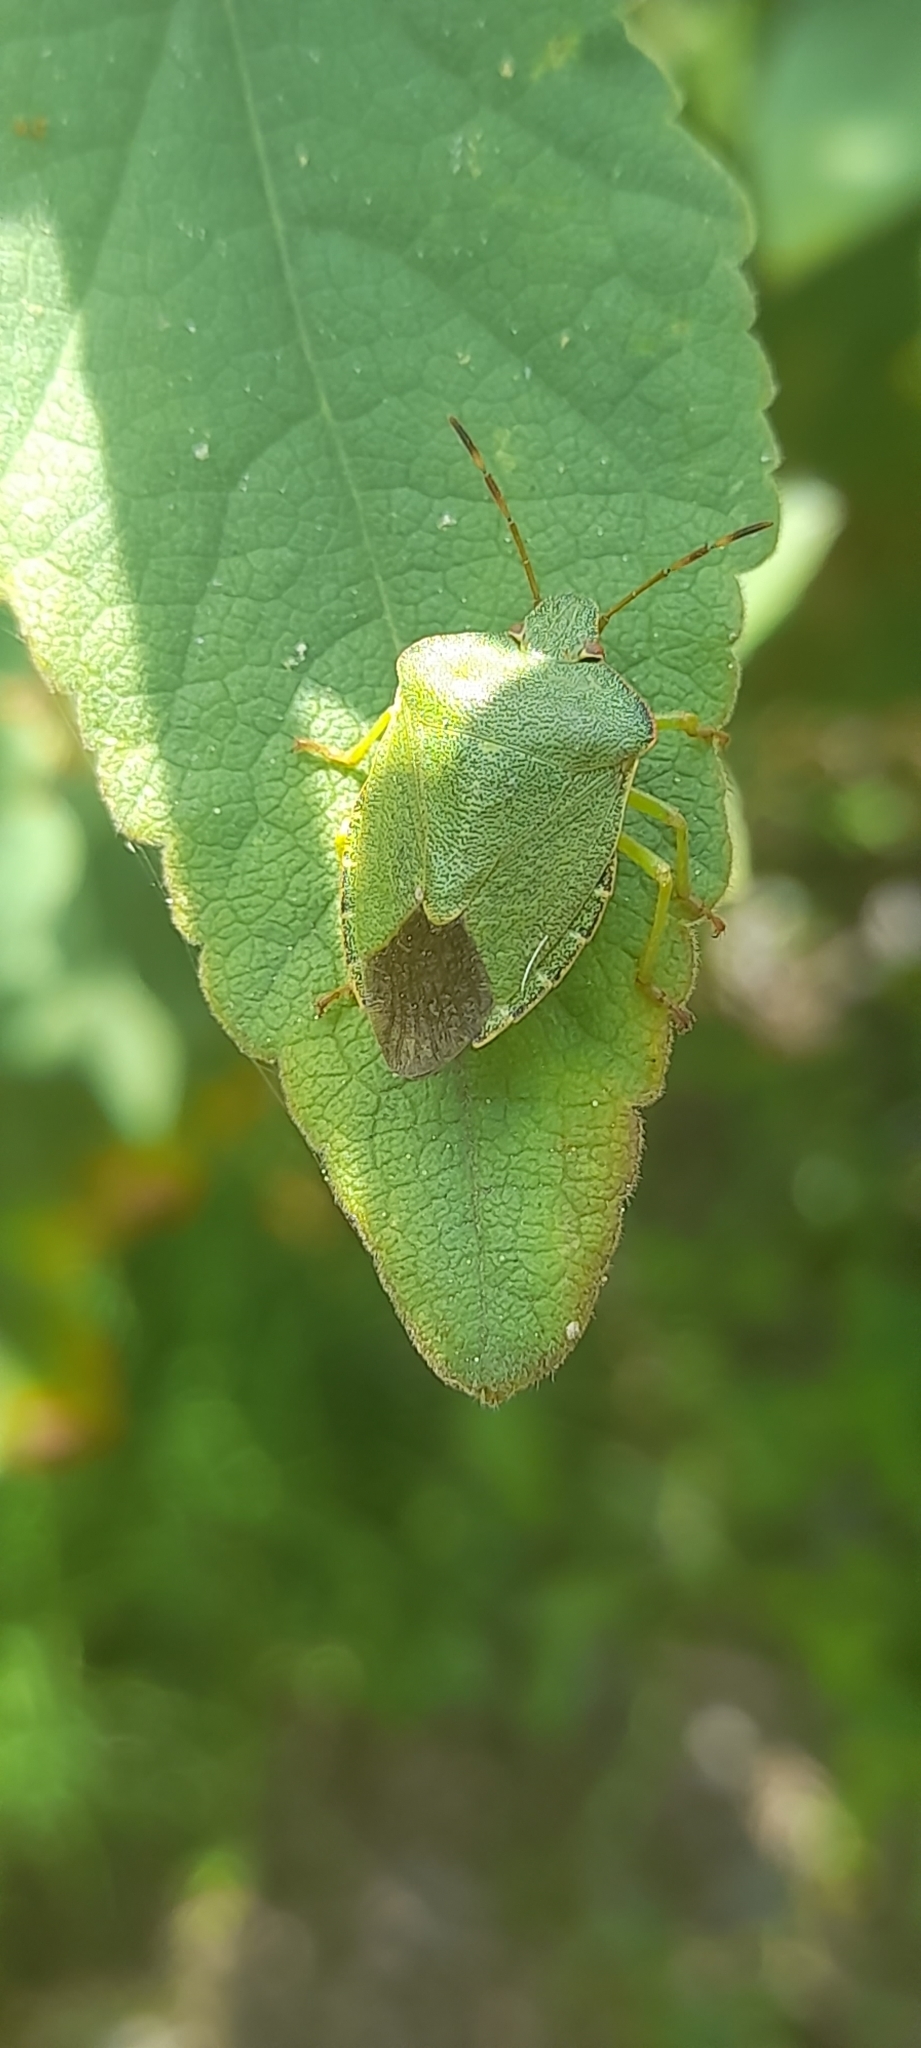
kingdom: Animalia
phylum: Arthropoda
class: Insecta
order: Hemiptera
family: Pentatomidae
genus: Palomena
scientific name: Palomena prasina
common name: Green shieldbug
